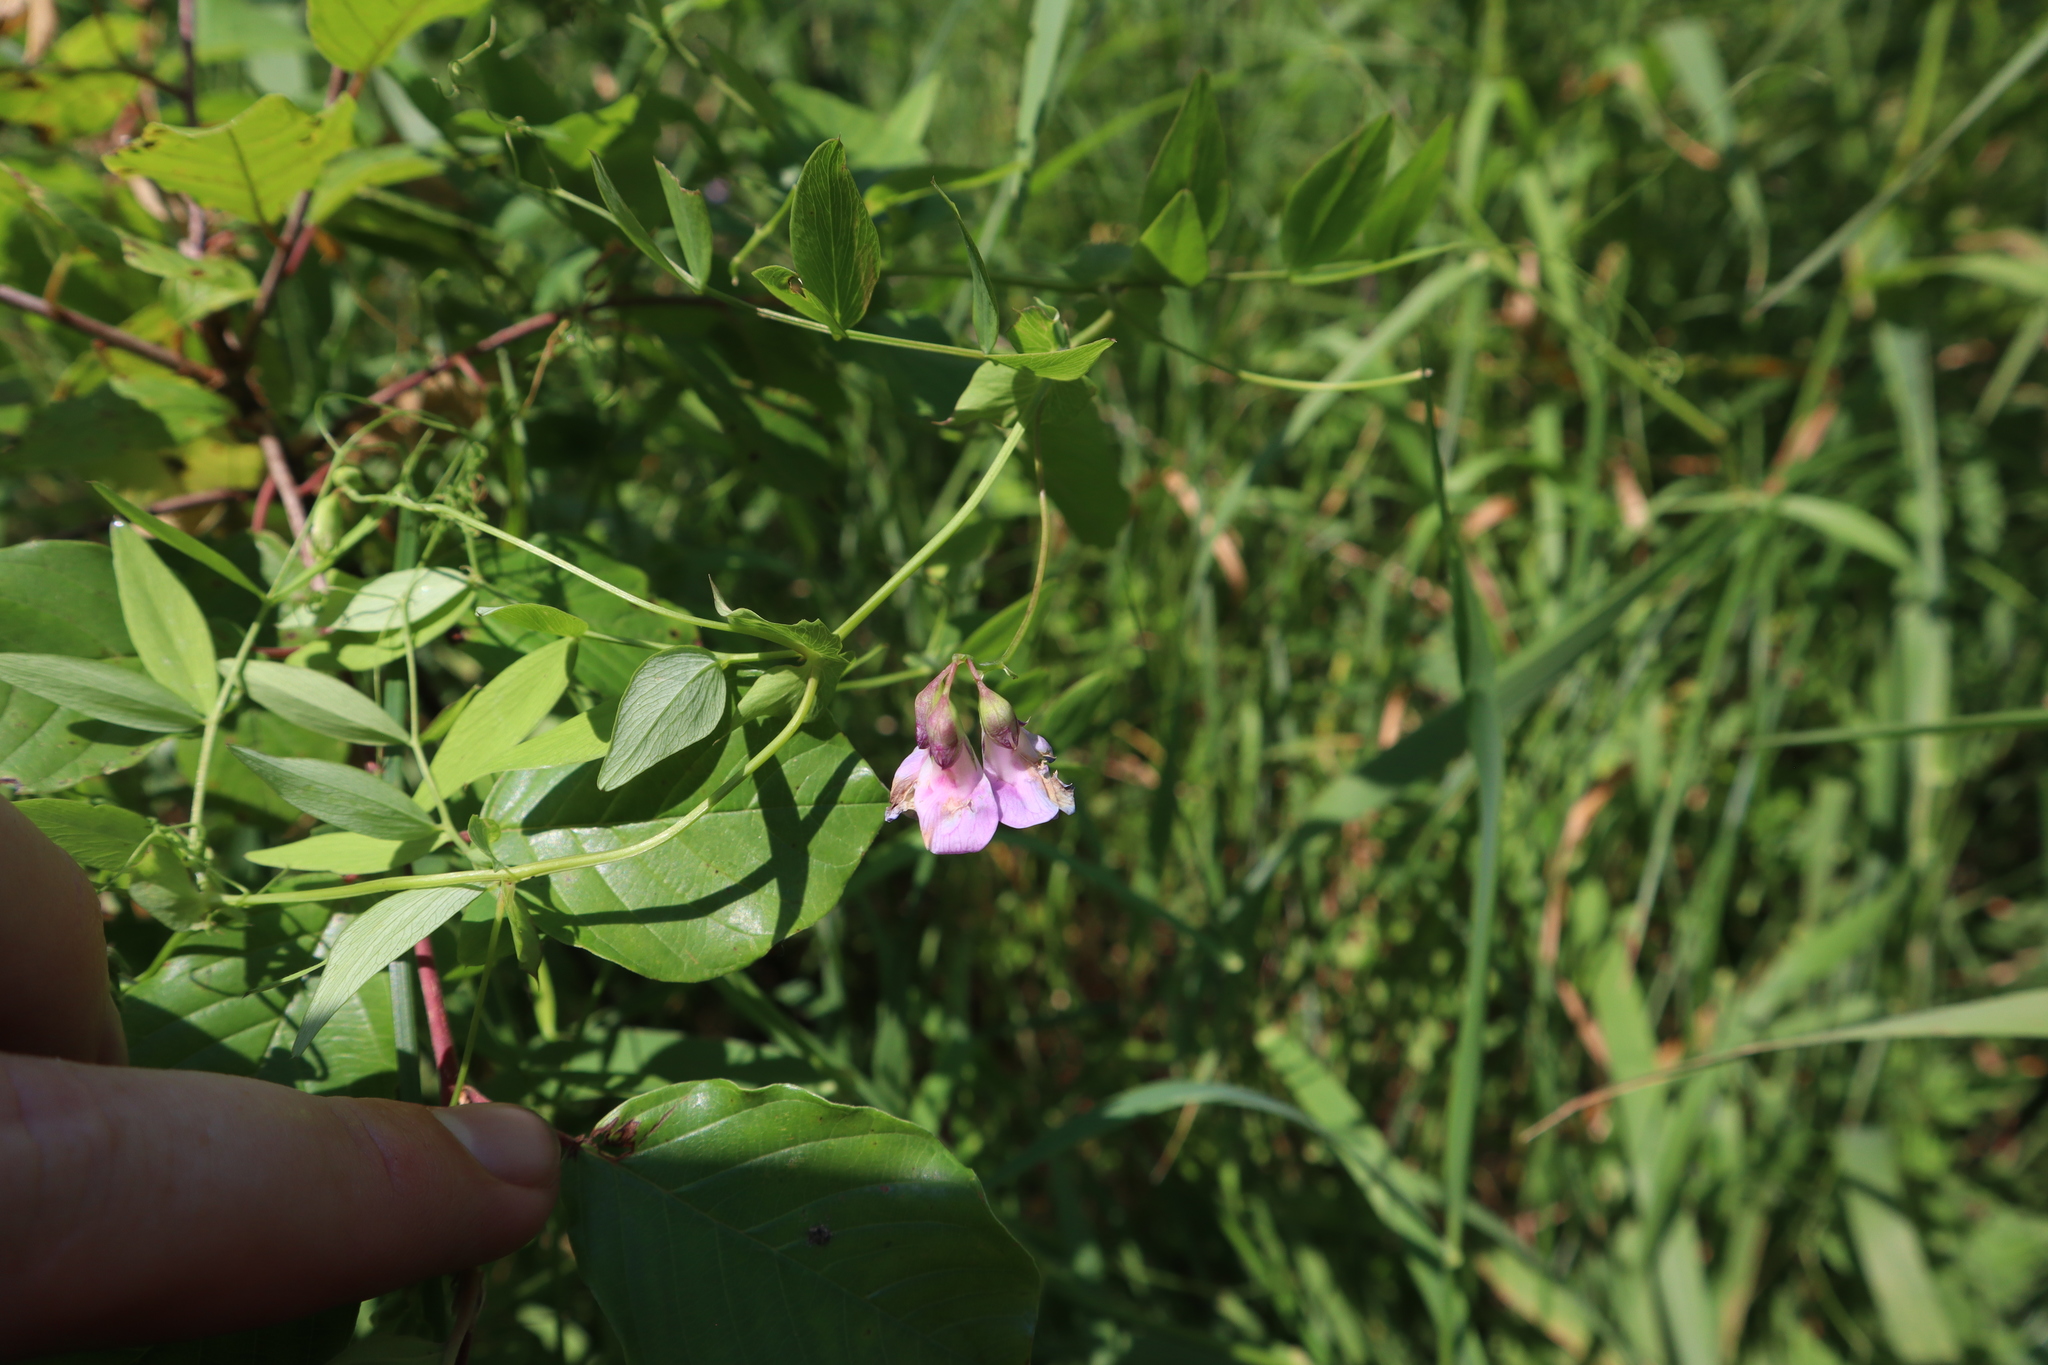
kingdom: Plantae
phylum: Tracheophyta
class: Magnoliopsida
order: Fabales
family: Fabaceae
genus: Lathyrus
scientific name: Lathyrus palustris
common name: Marsh pea
